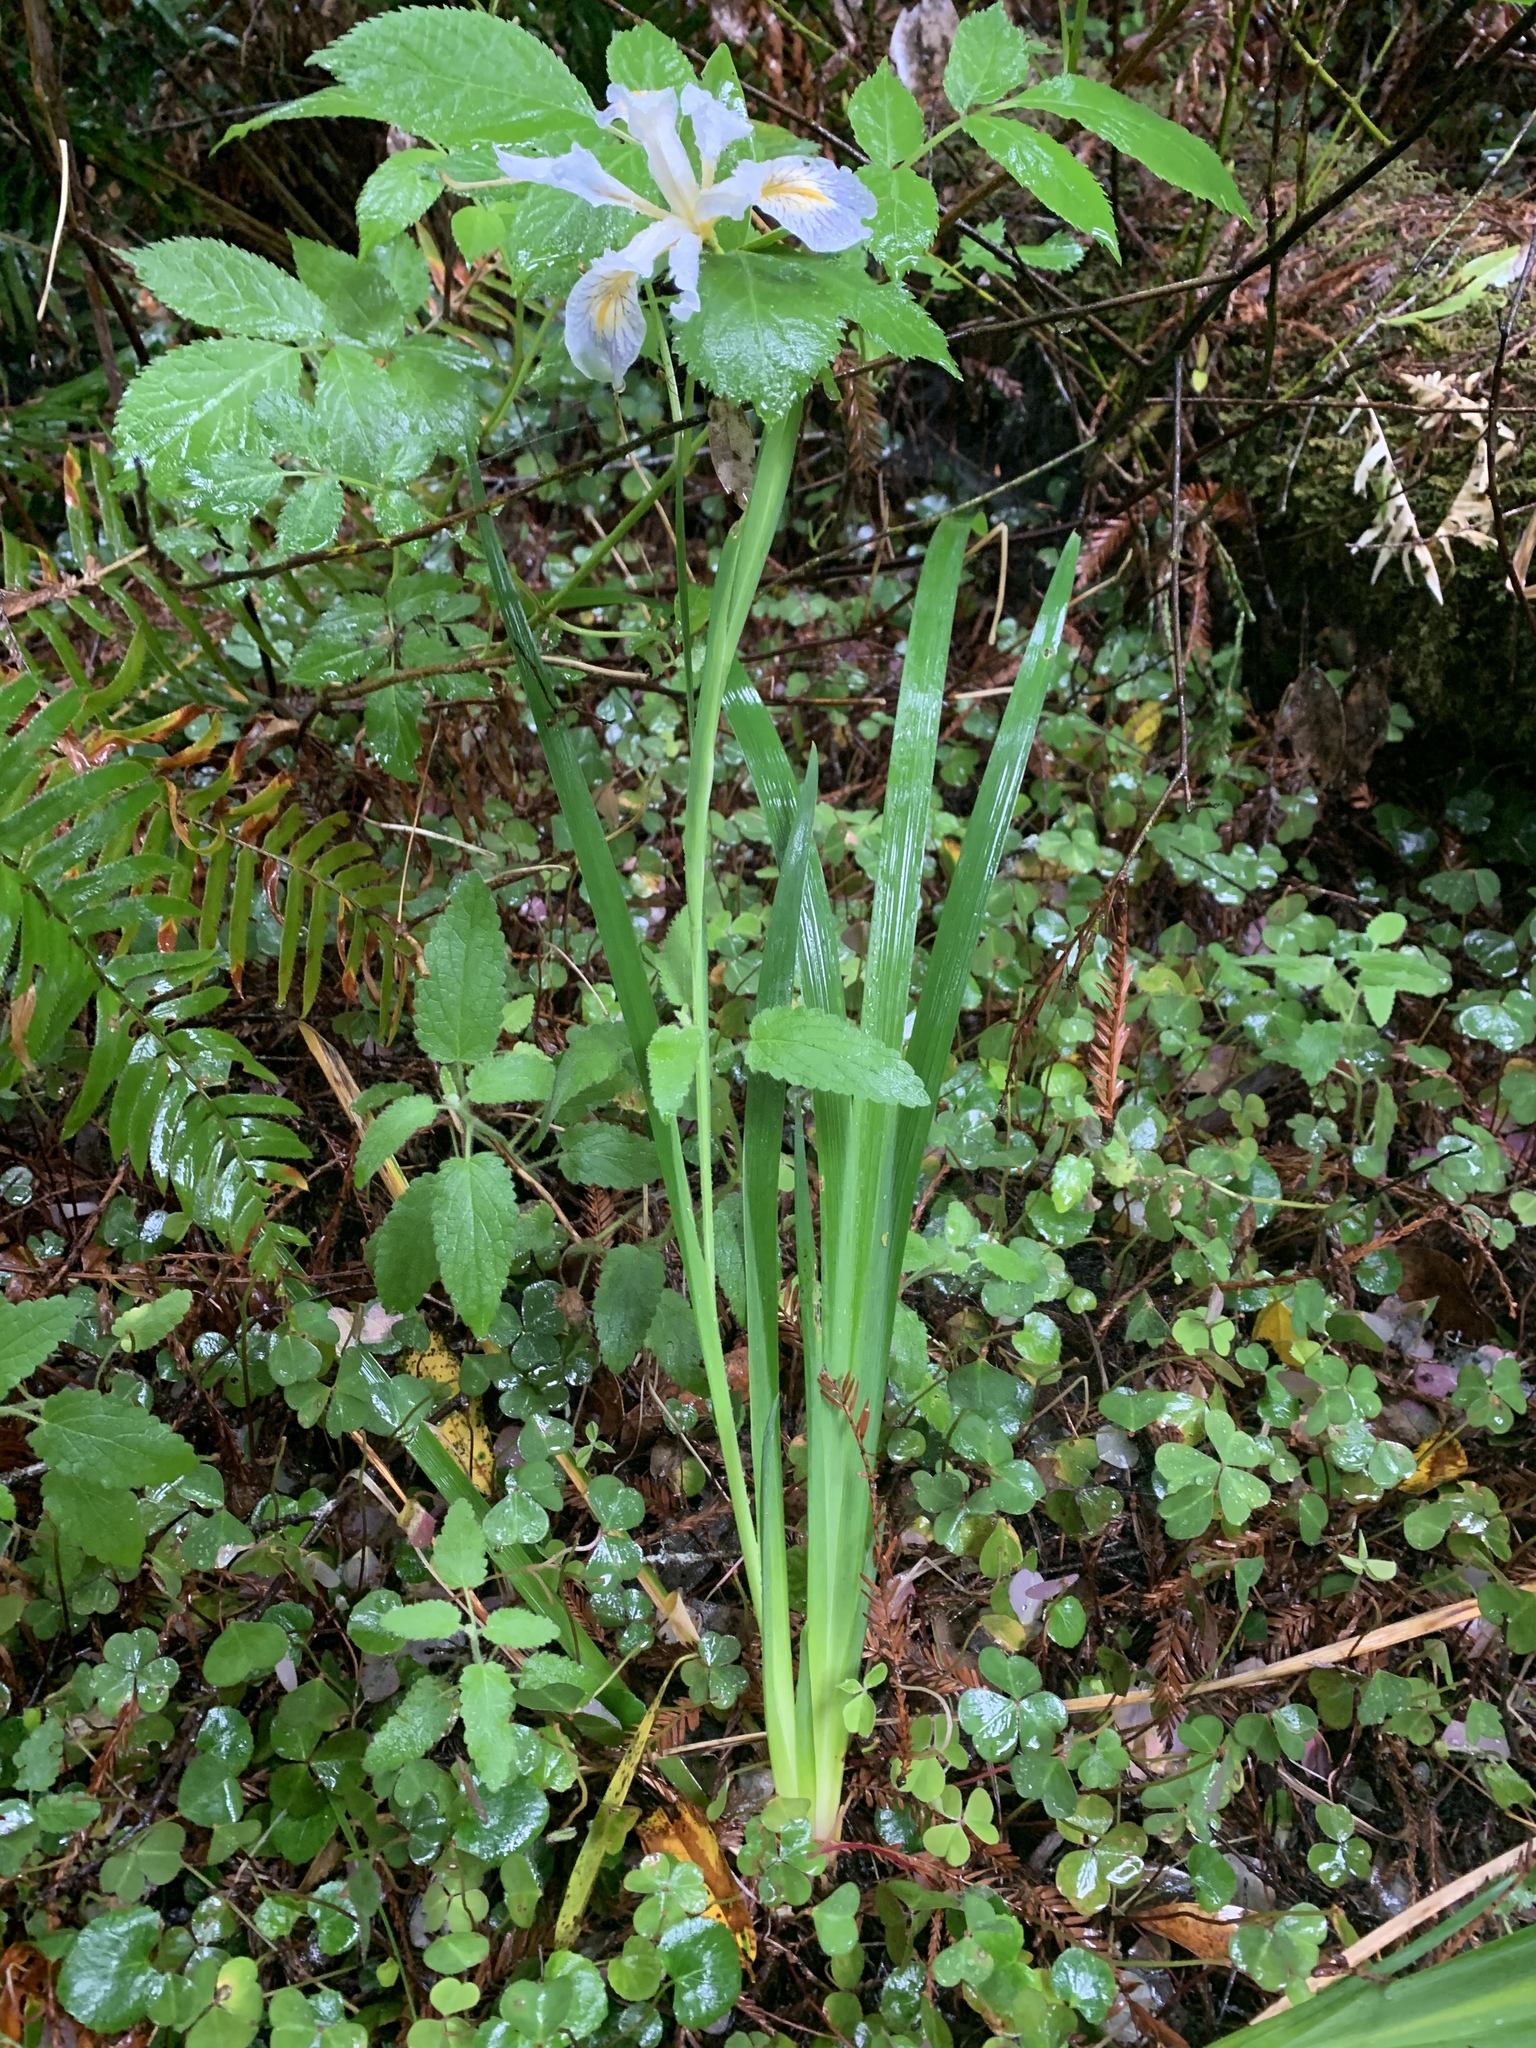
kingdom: Plantae
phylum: Tracheophyta
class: Liliopsida
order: Asparagales
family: Iridaceae
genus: Iris
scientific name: Iris douglasiana
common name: Marin iris
